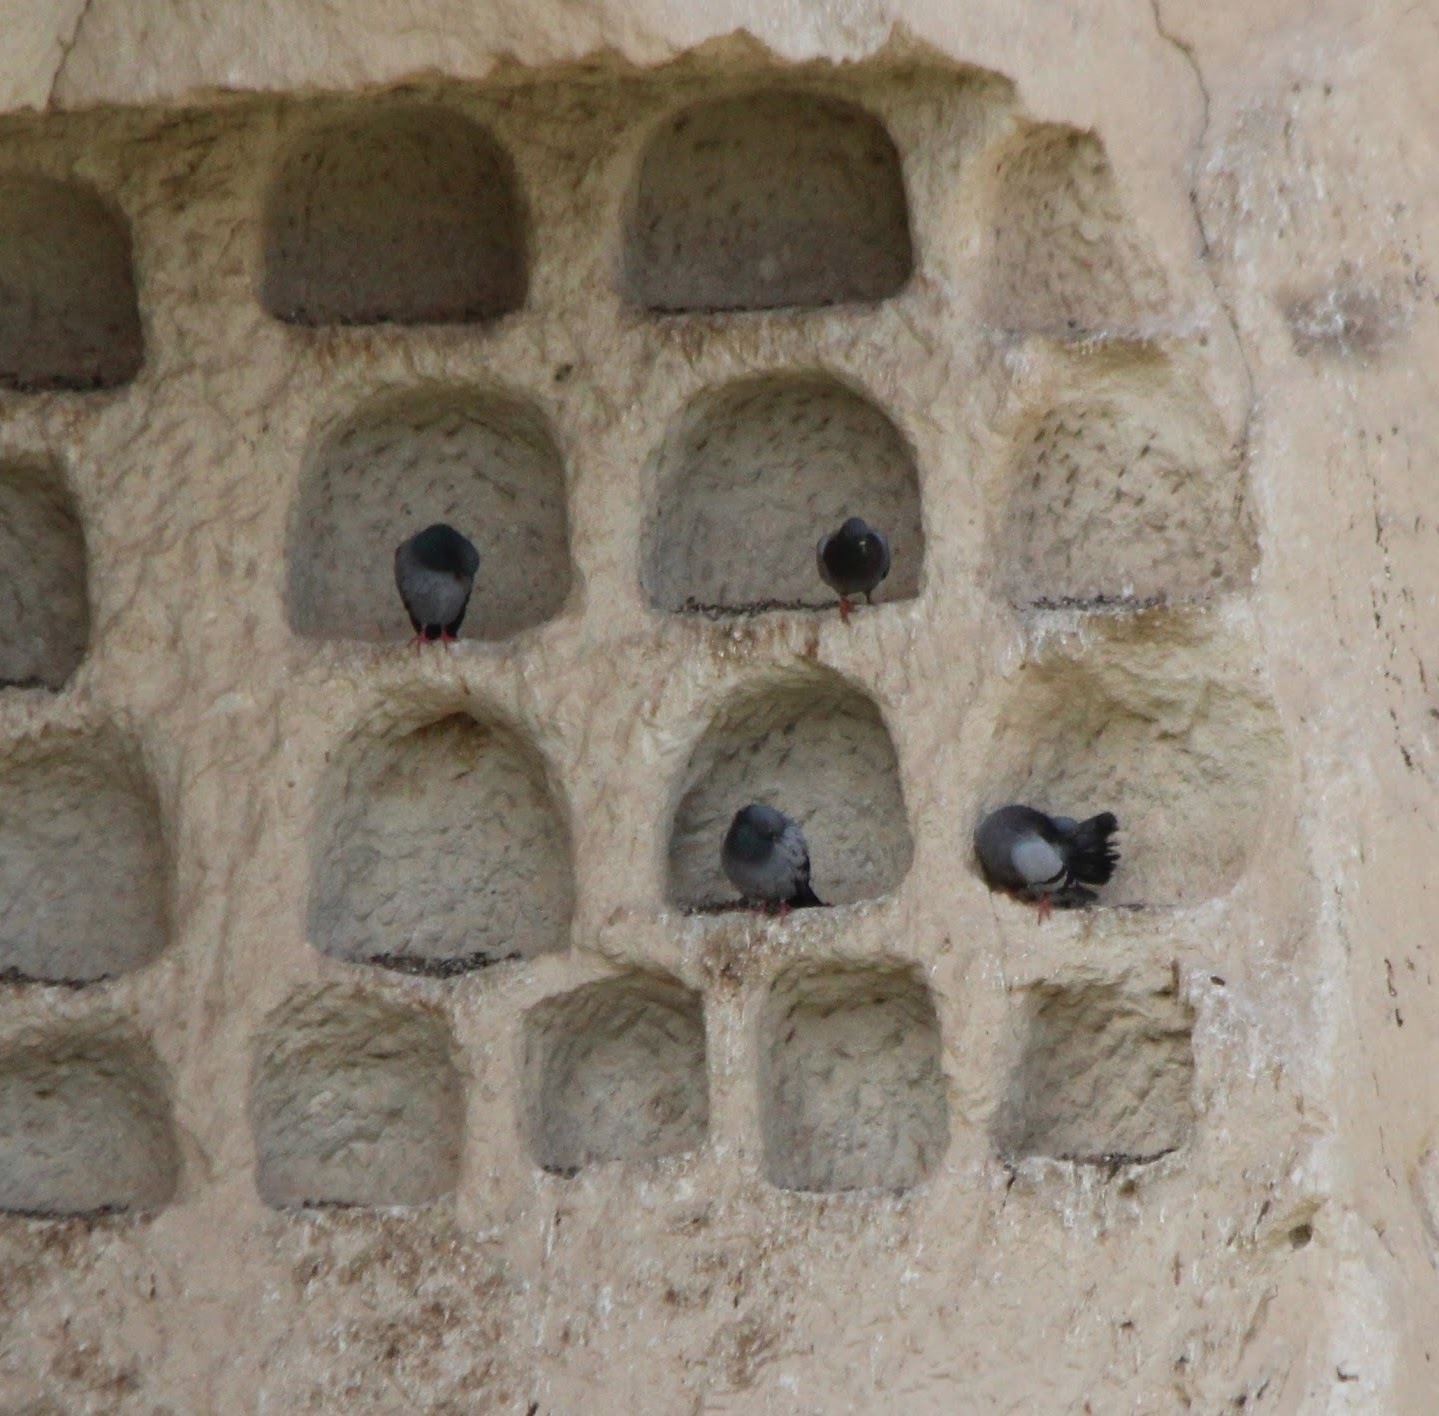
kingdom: Animalia
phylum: Chordata
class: Aves
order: Columbiformes
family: Columbidae
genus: Columba
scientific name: Columba livia
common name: Rock pigeon
